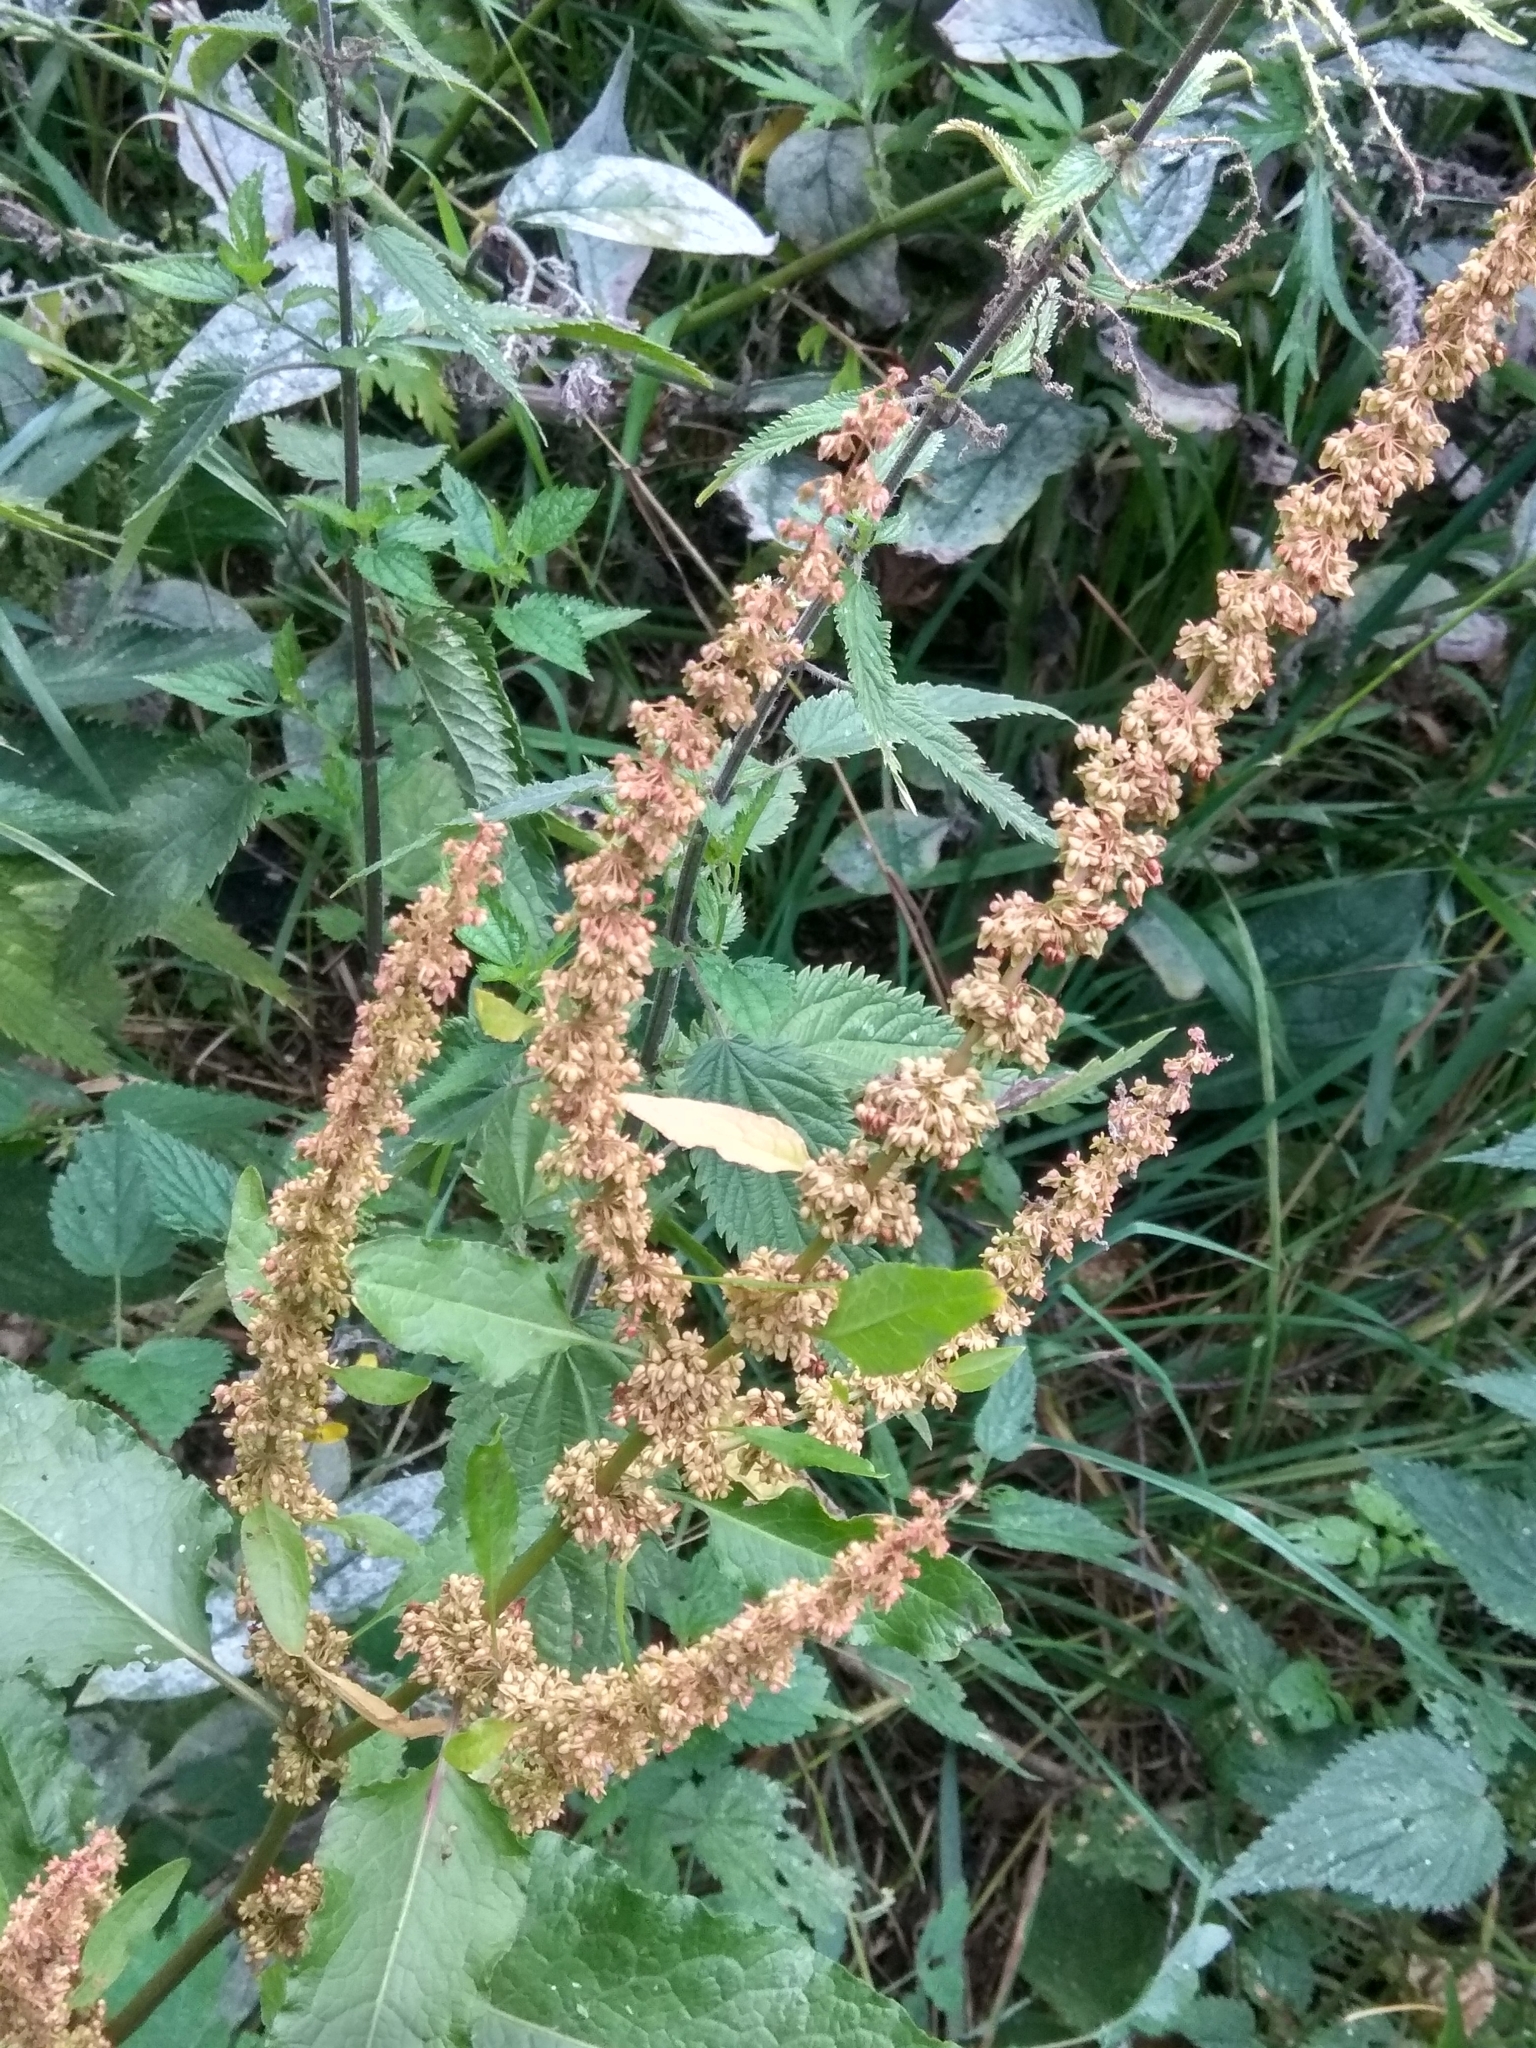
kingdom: Plantae
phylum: Tracheophyta
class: Magnoliopsida
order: Caryophyllales
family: Polygonaceae
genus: Rumex
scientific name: Rumex aquaticus
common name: Scottish dock
